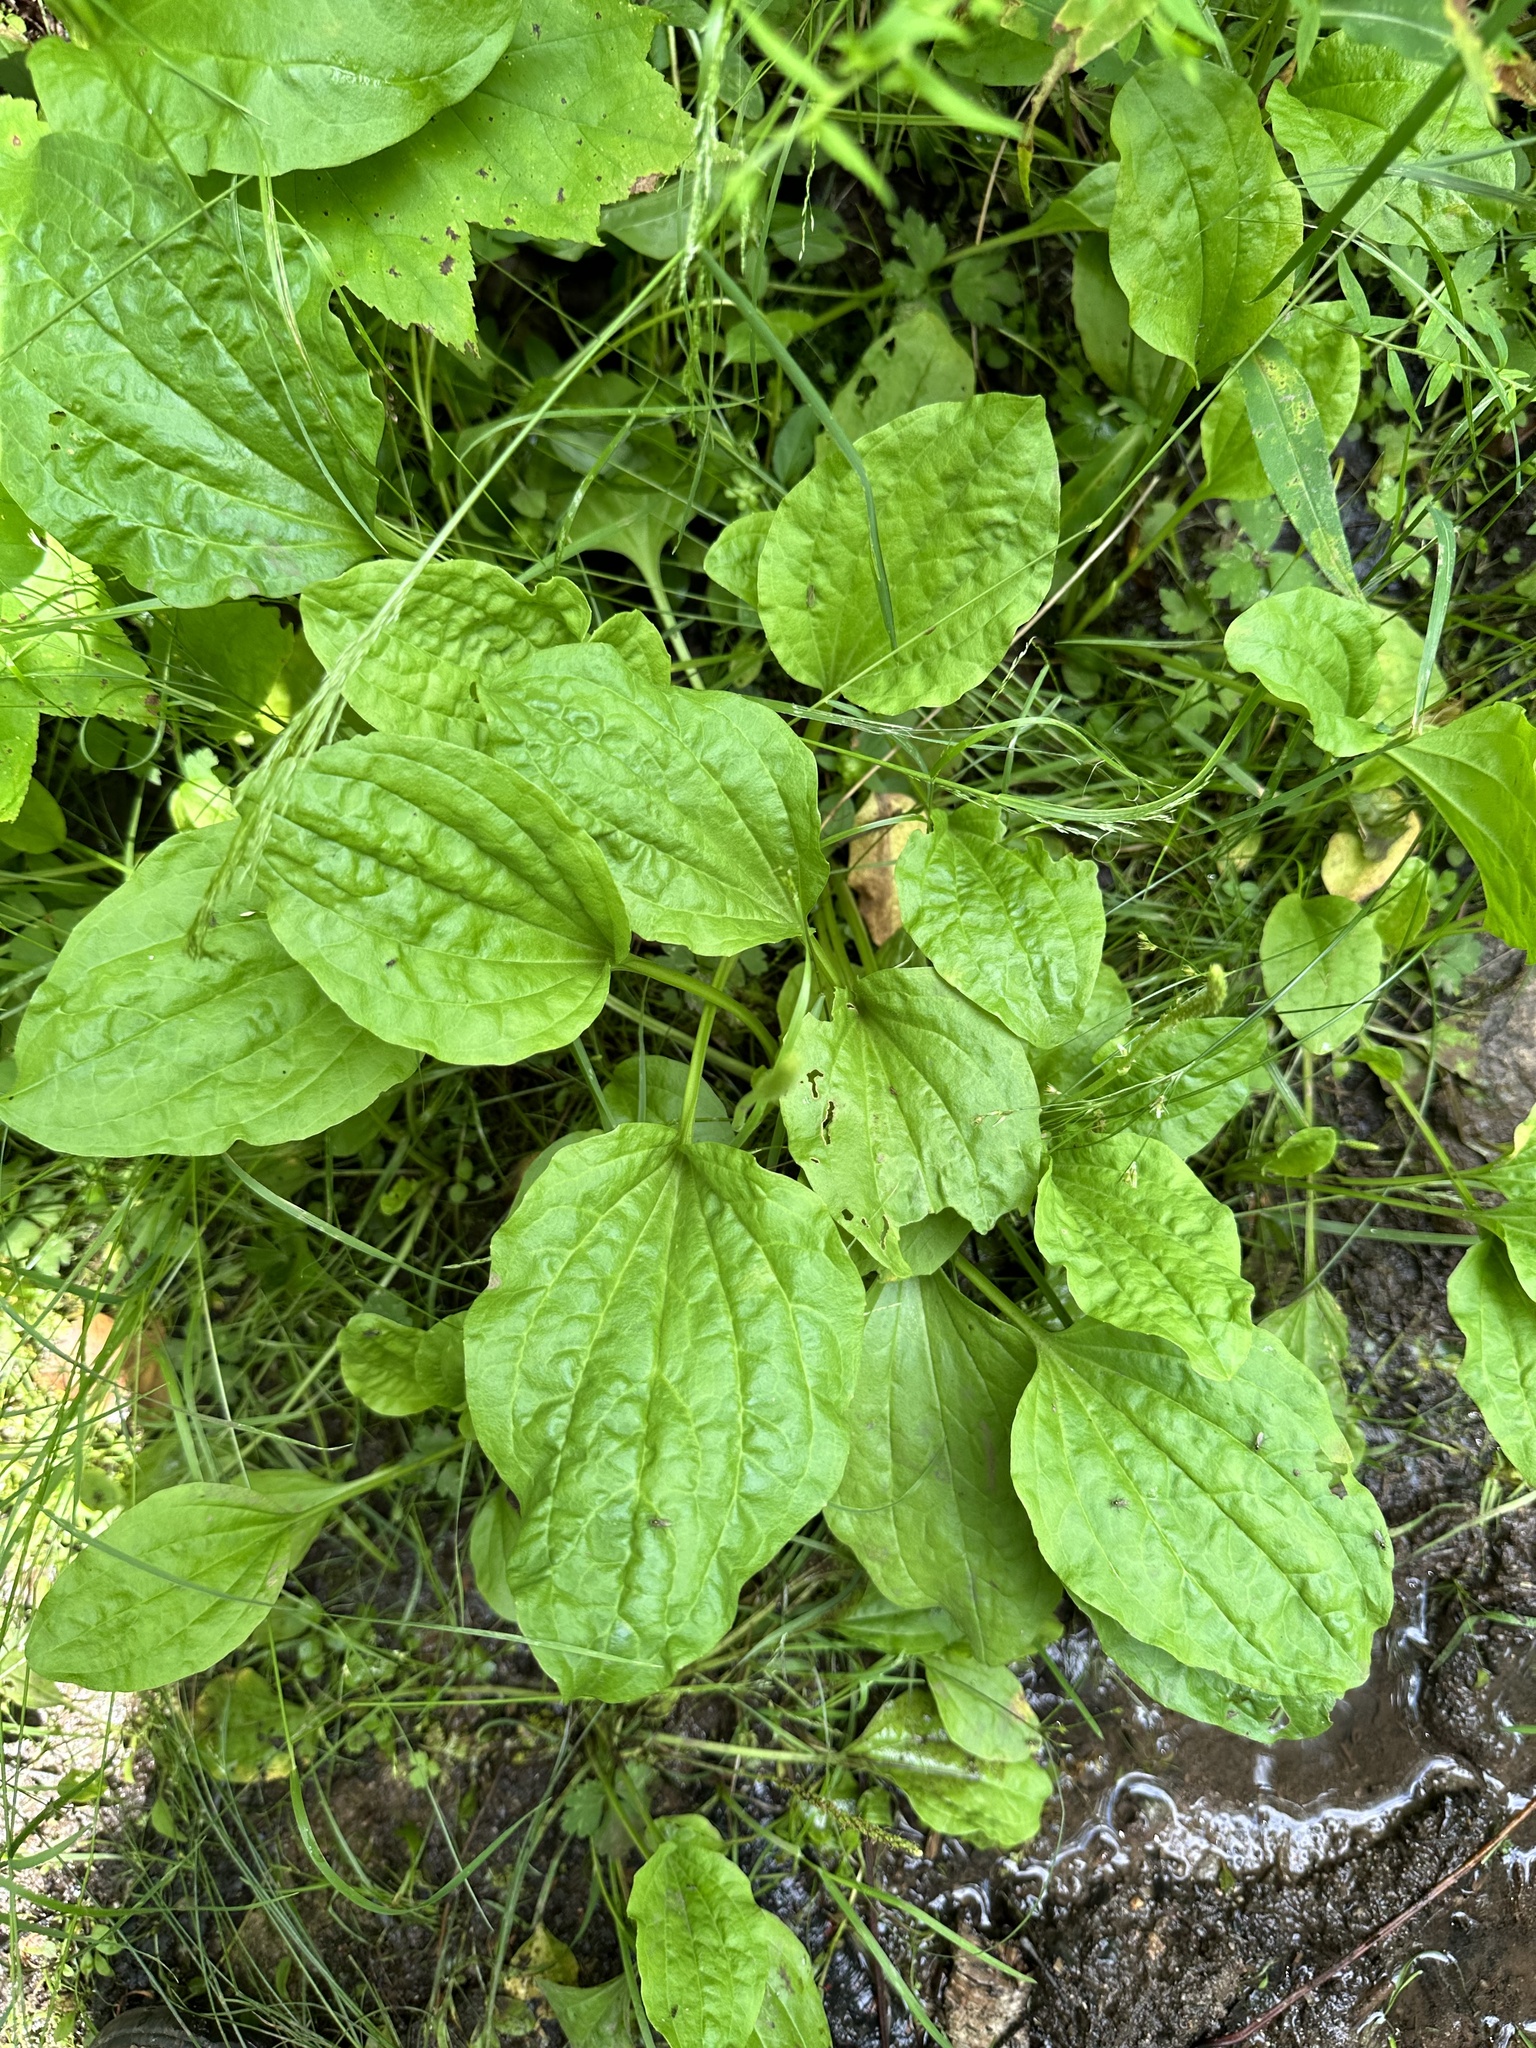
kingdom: Plantae
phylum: Tracheophyta
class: Magnoliopsida
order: Lamiales
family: Plantaginaceae
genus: Plantago
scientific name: Plantago major
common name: Common plantain
